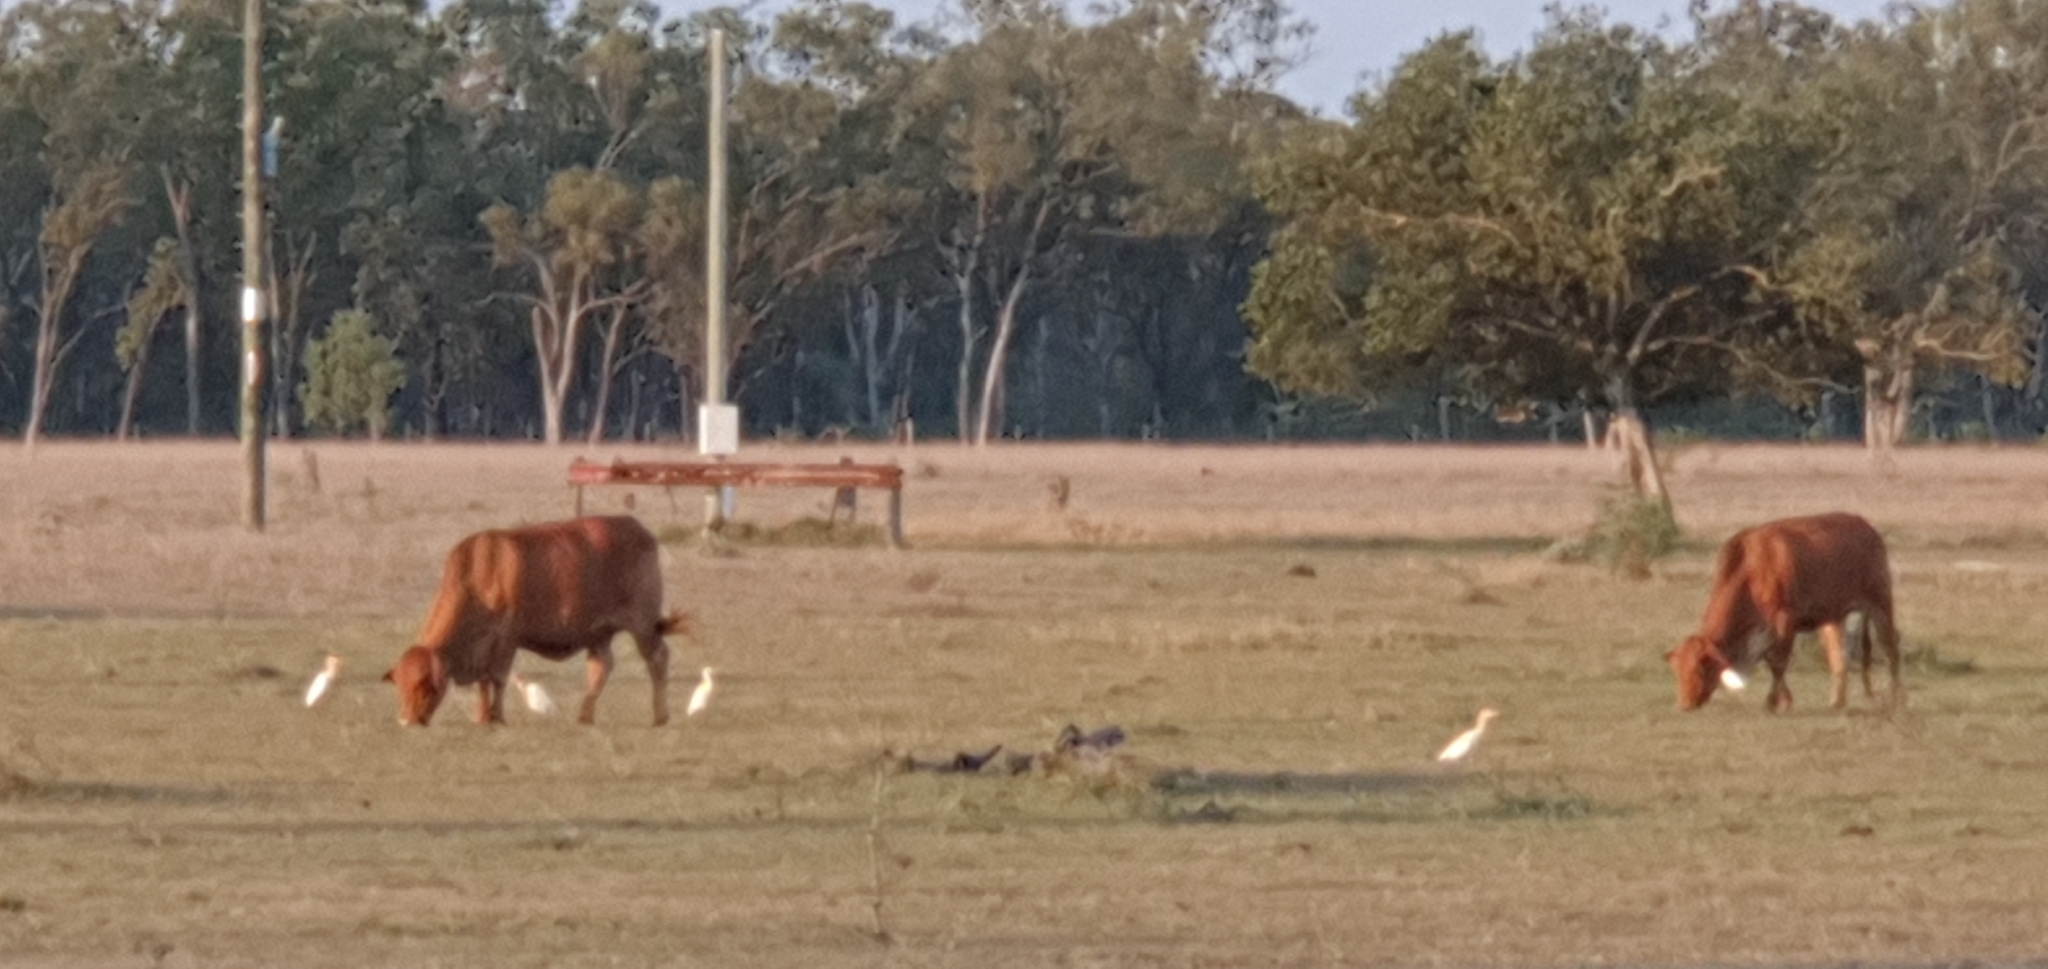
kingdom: Animalia
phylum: Chordata
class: Aves
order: Pelecaniformes
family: Ardeidae
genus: Bubulcus
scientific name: Bubulcus coromandus
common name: Eastern cattle egret
